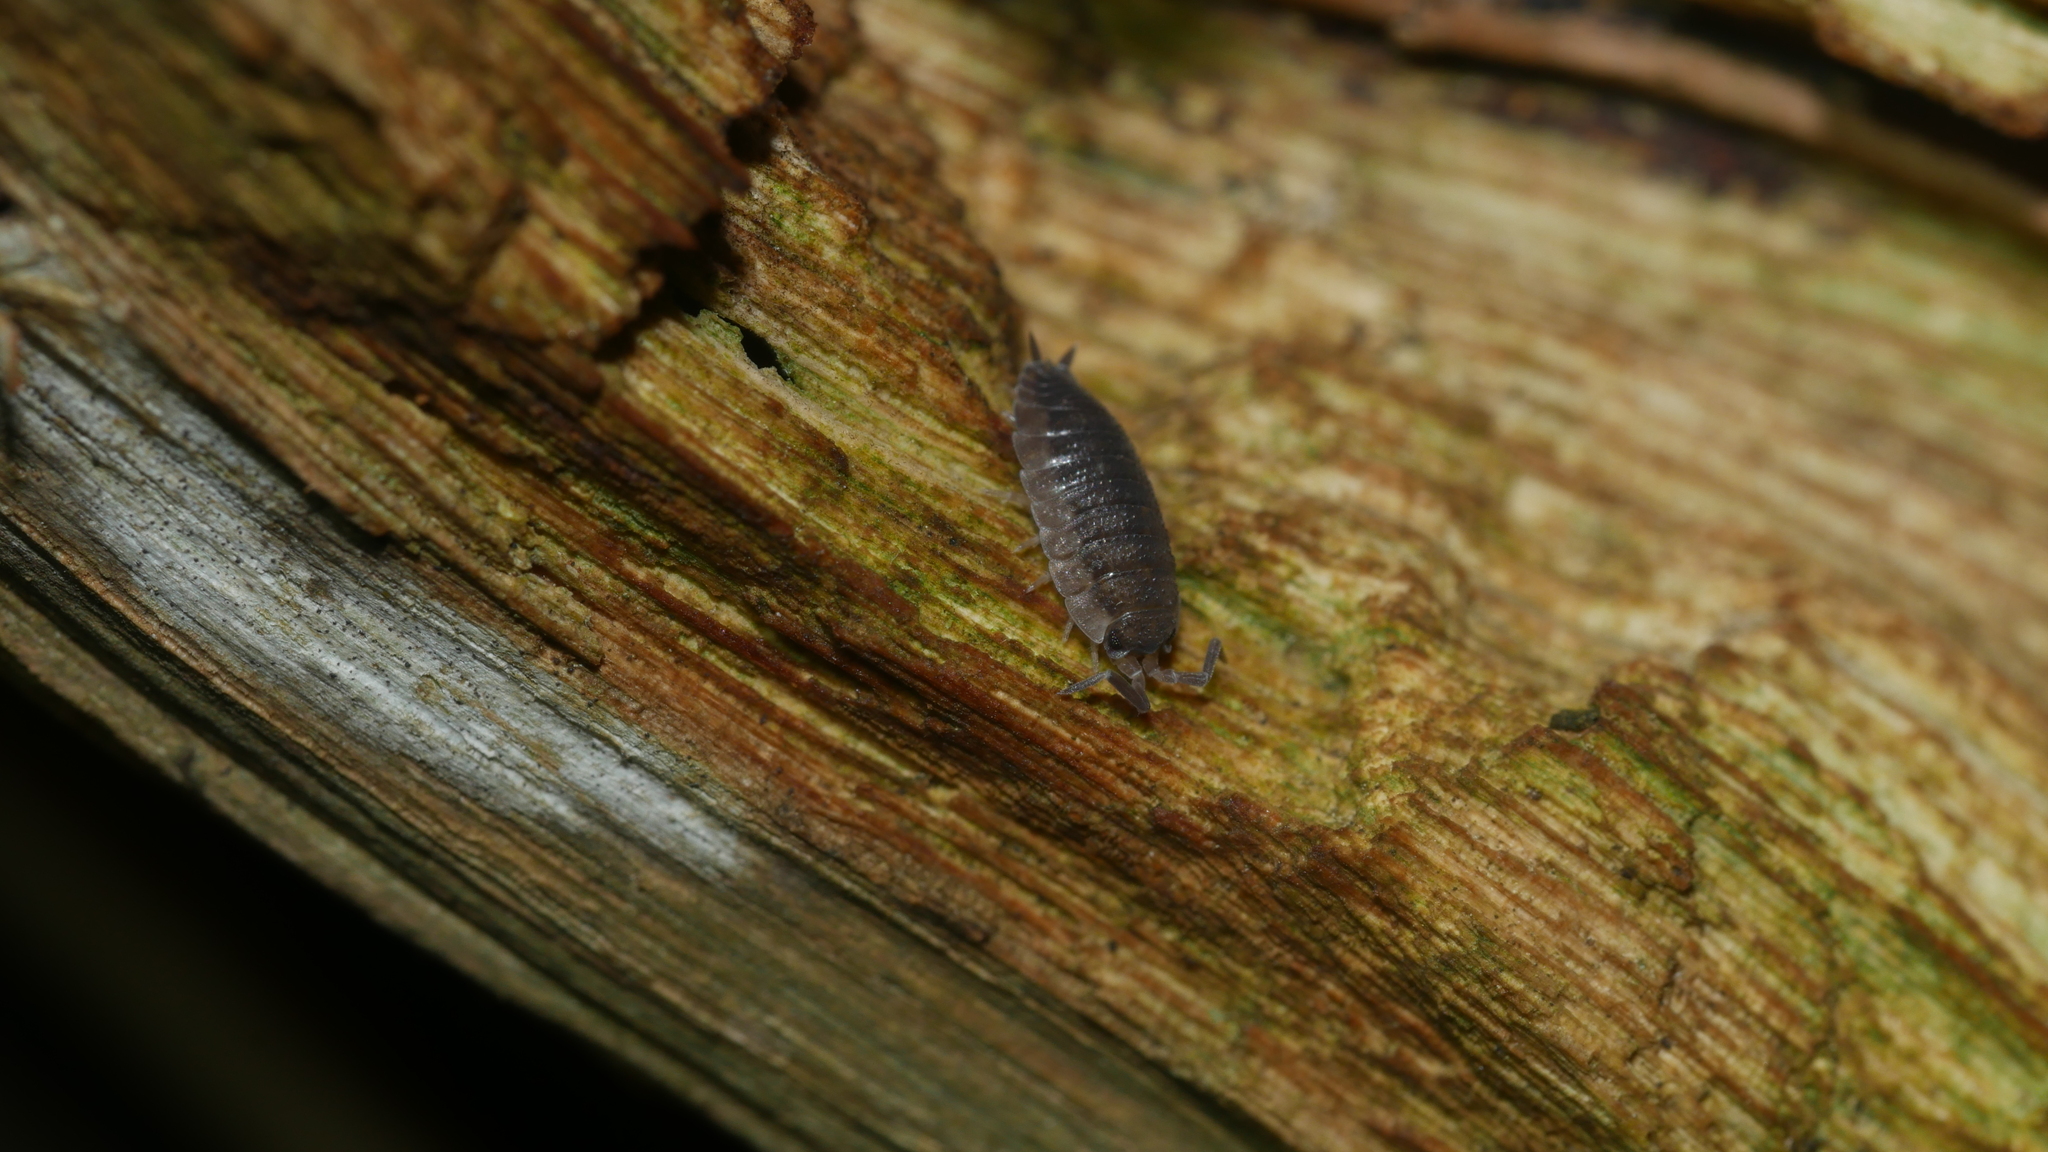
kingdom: Animalia
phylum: Arthropoda
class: Malacostraca
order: Isopoda
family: Porcellionidae
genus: Porcellio
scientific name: Porcellio scaber
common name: Common rough woodlouse
